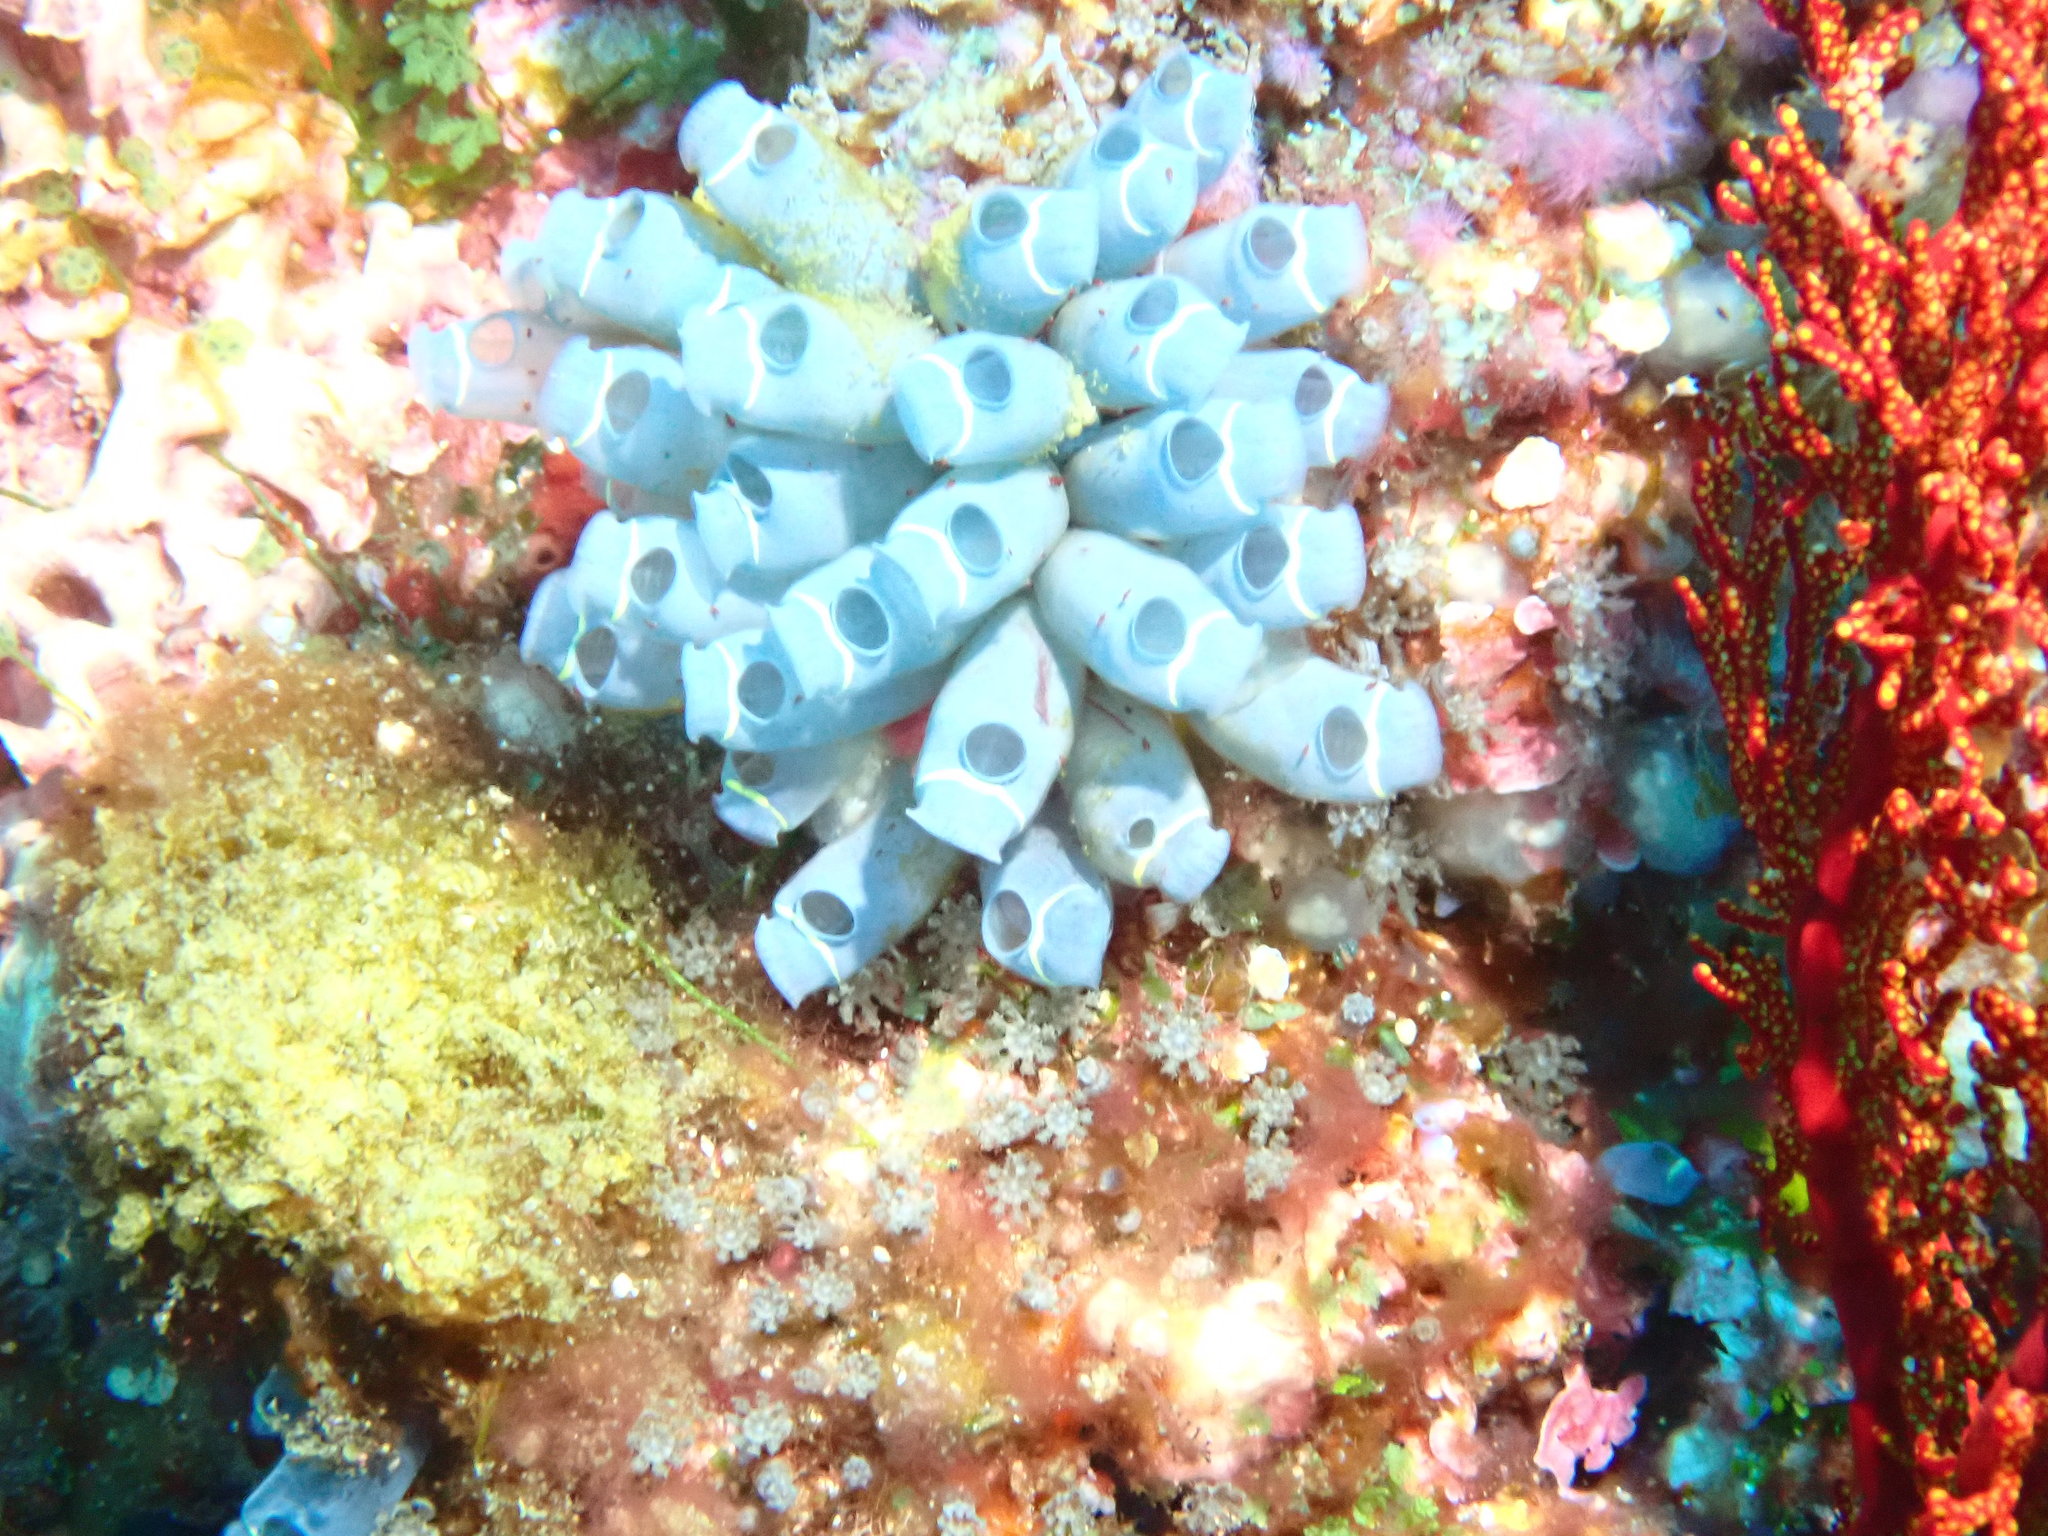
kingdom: Animalia
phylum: Chordata
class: Ascidiacea
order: Aplousobranchia
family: Clavelinidae
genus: Clavelina
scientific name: Clavelina cyclus
